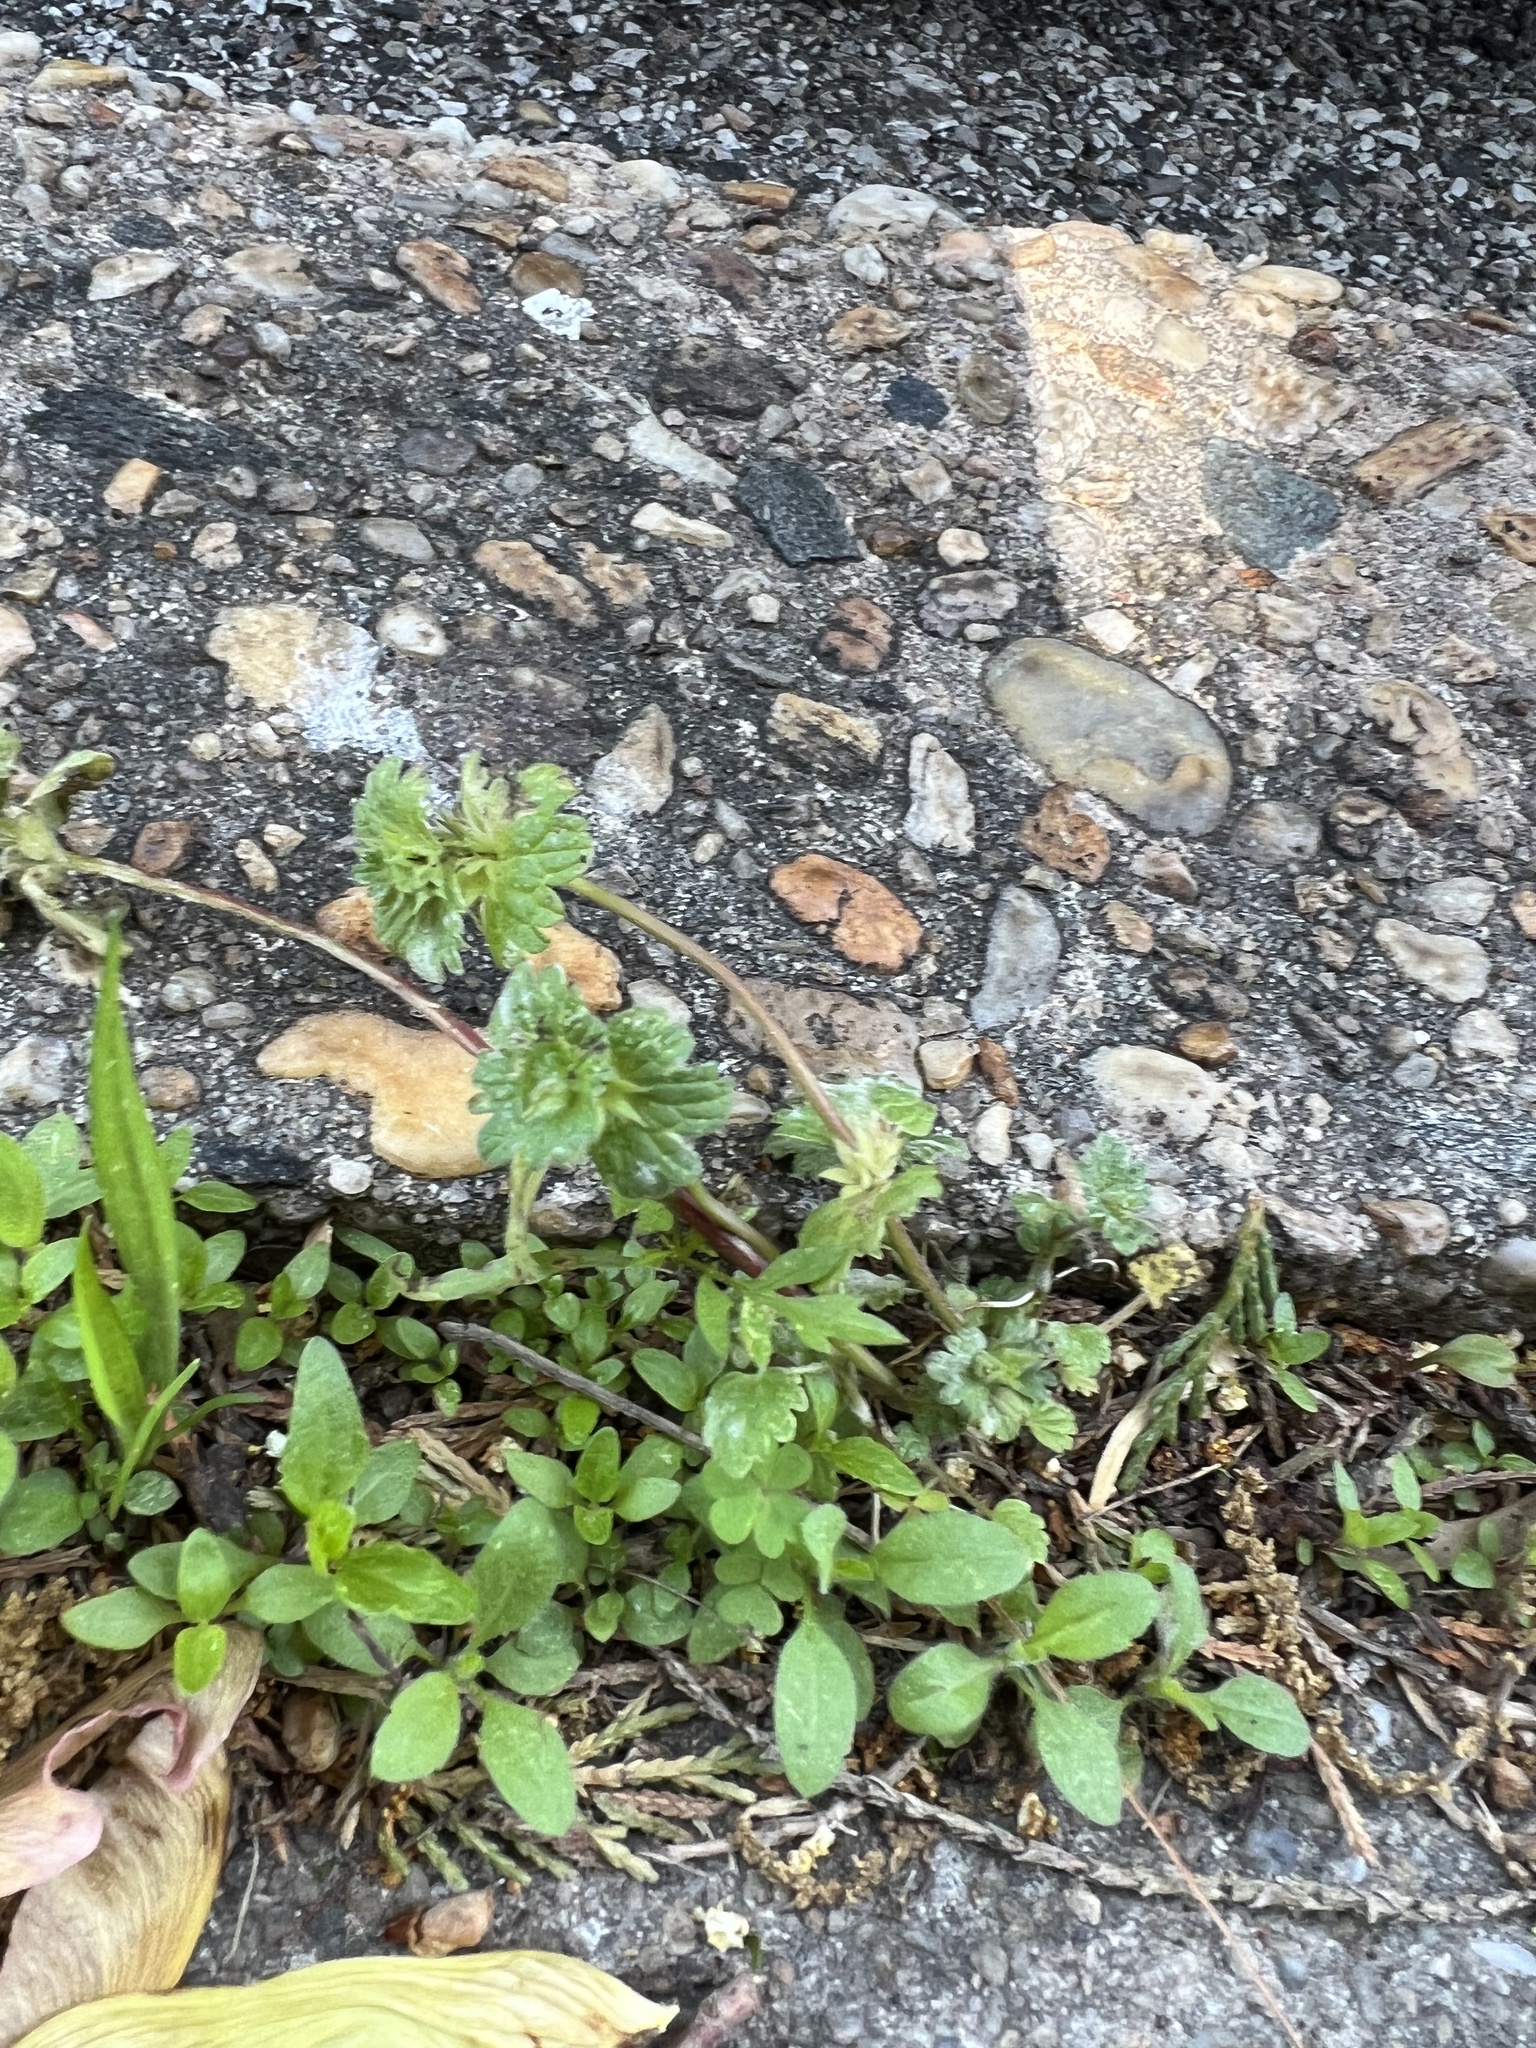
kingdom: Plantae
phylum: Tracheophyta
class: Magnoliopsida
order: Lamiales
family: Lamiaceae
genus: Lamium
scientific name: Lamium amplexicaule
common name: Henbit dead-nettle
